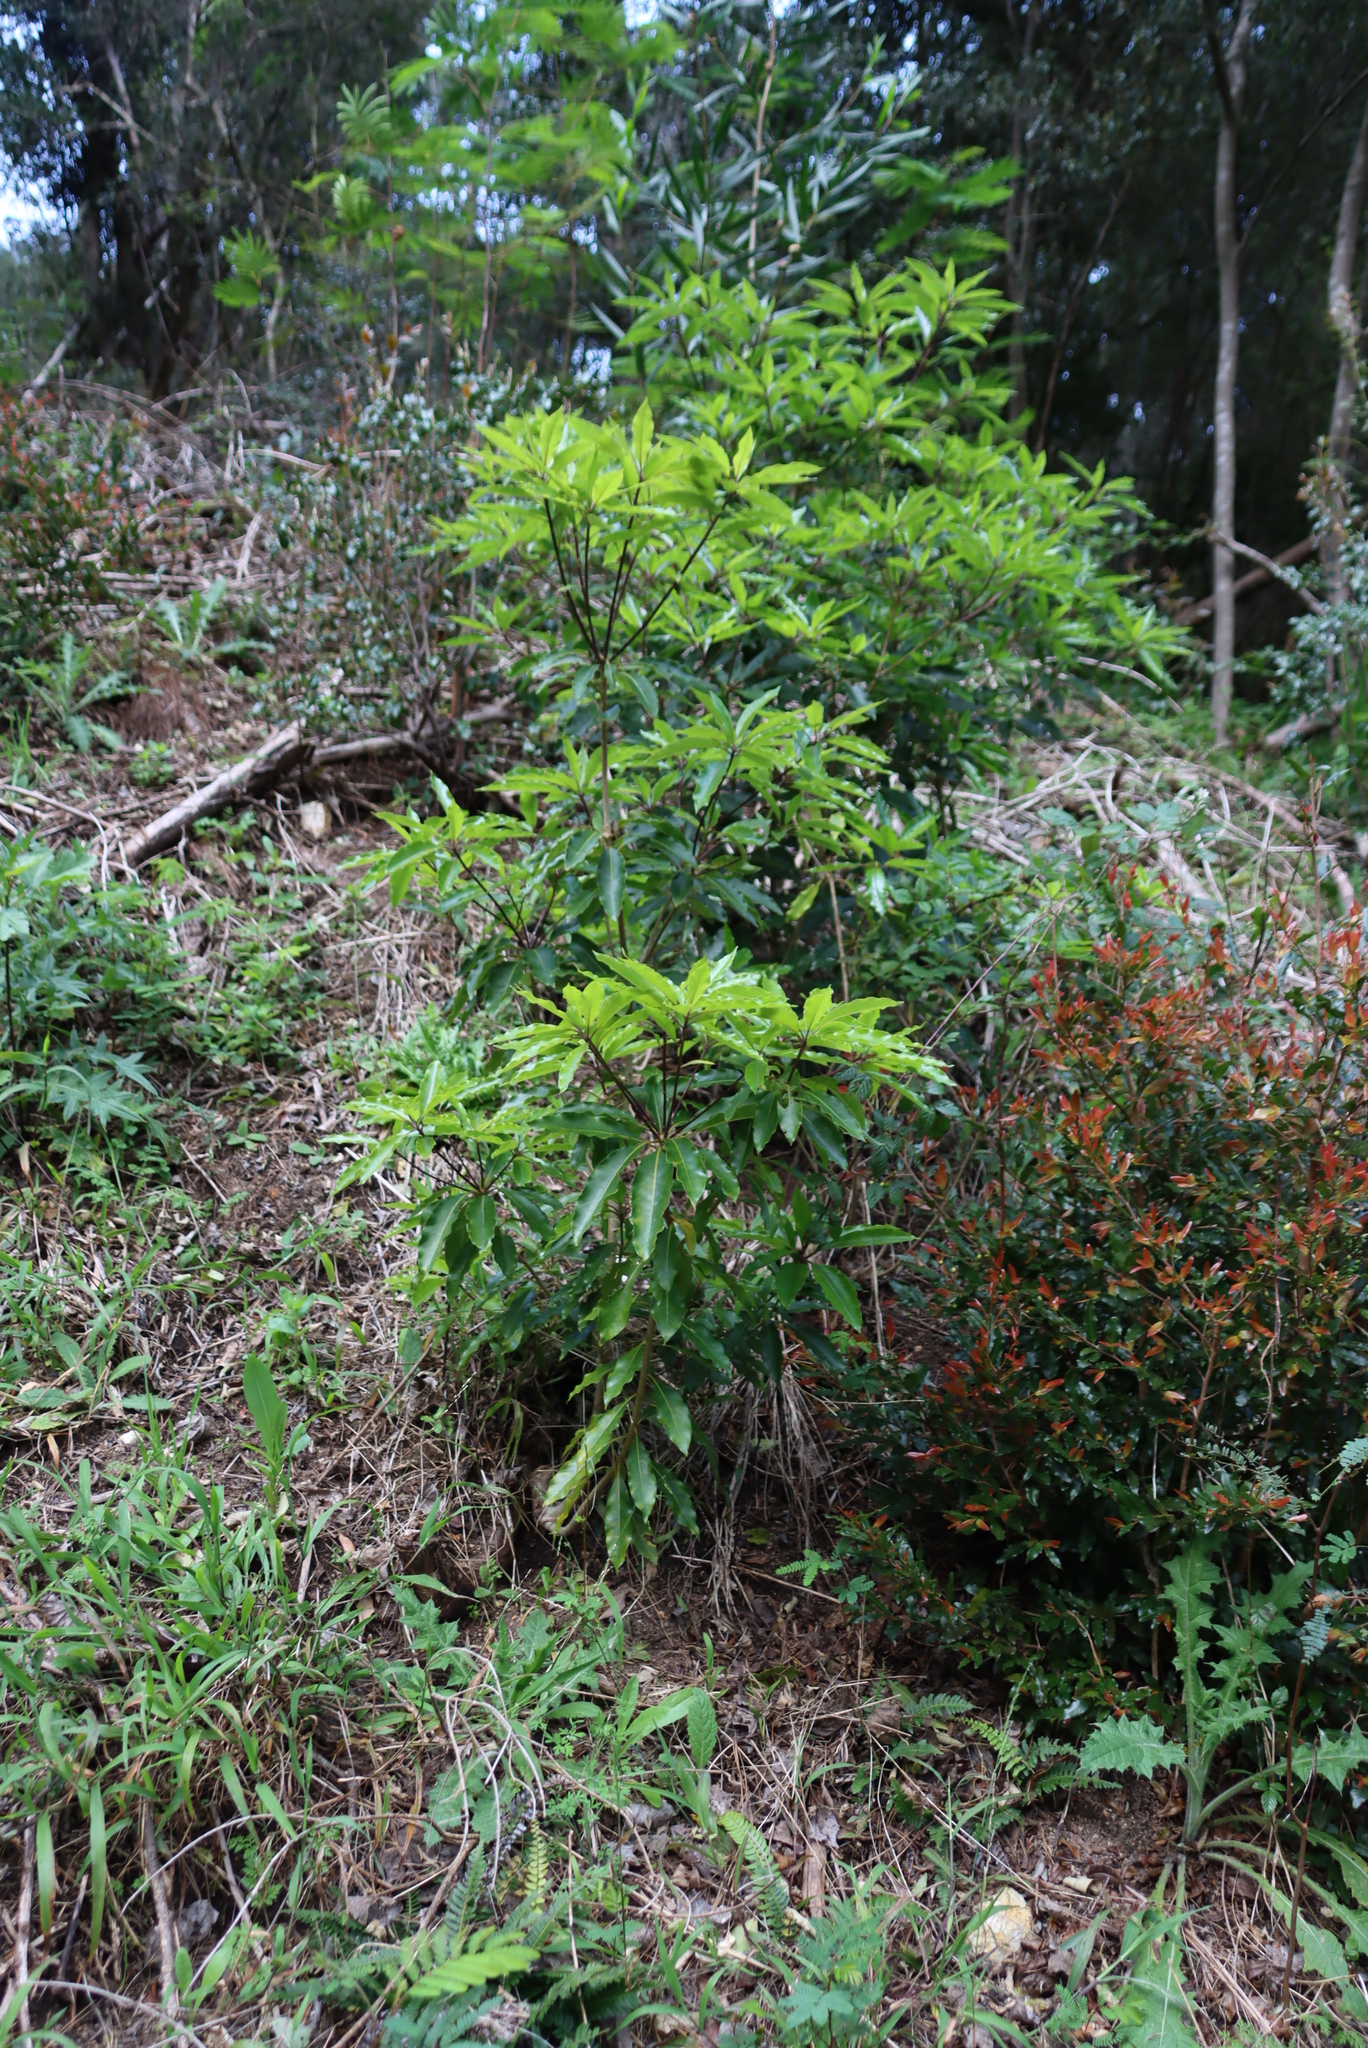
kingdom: Plantae
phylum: Tracheophyta
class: Magnoliopsida
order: Apiales
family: Pittosporaceae
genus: Pittosporum
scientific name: Pittosporum undulatum
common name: Australian cheesewood
